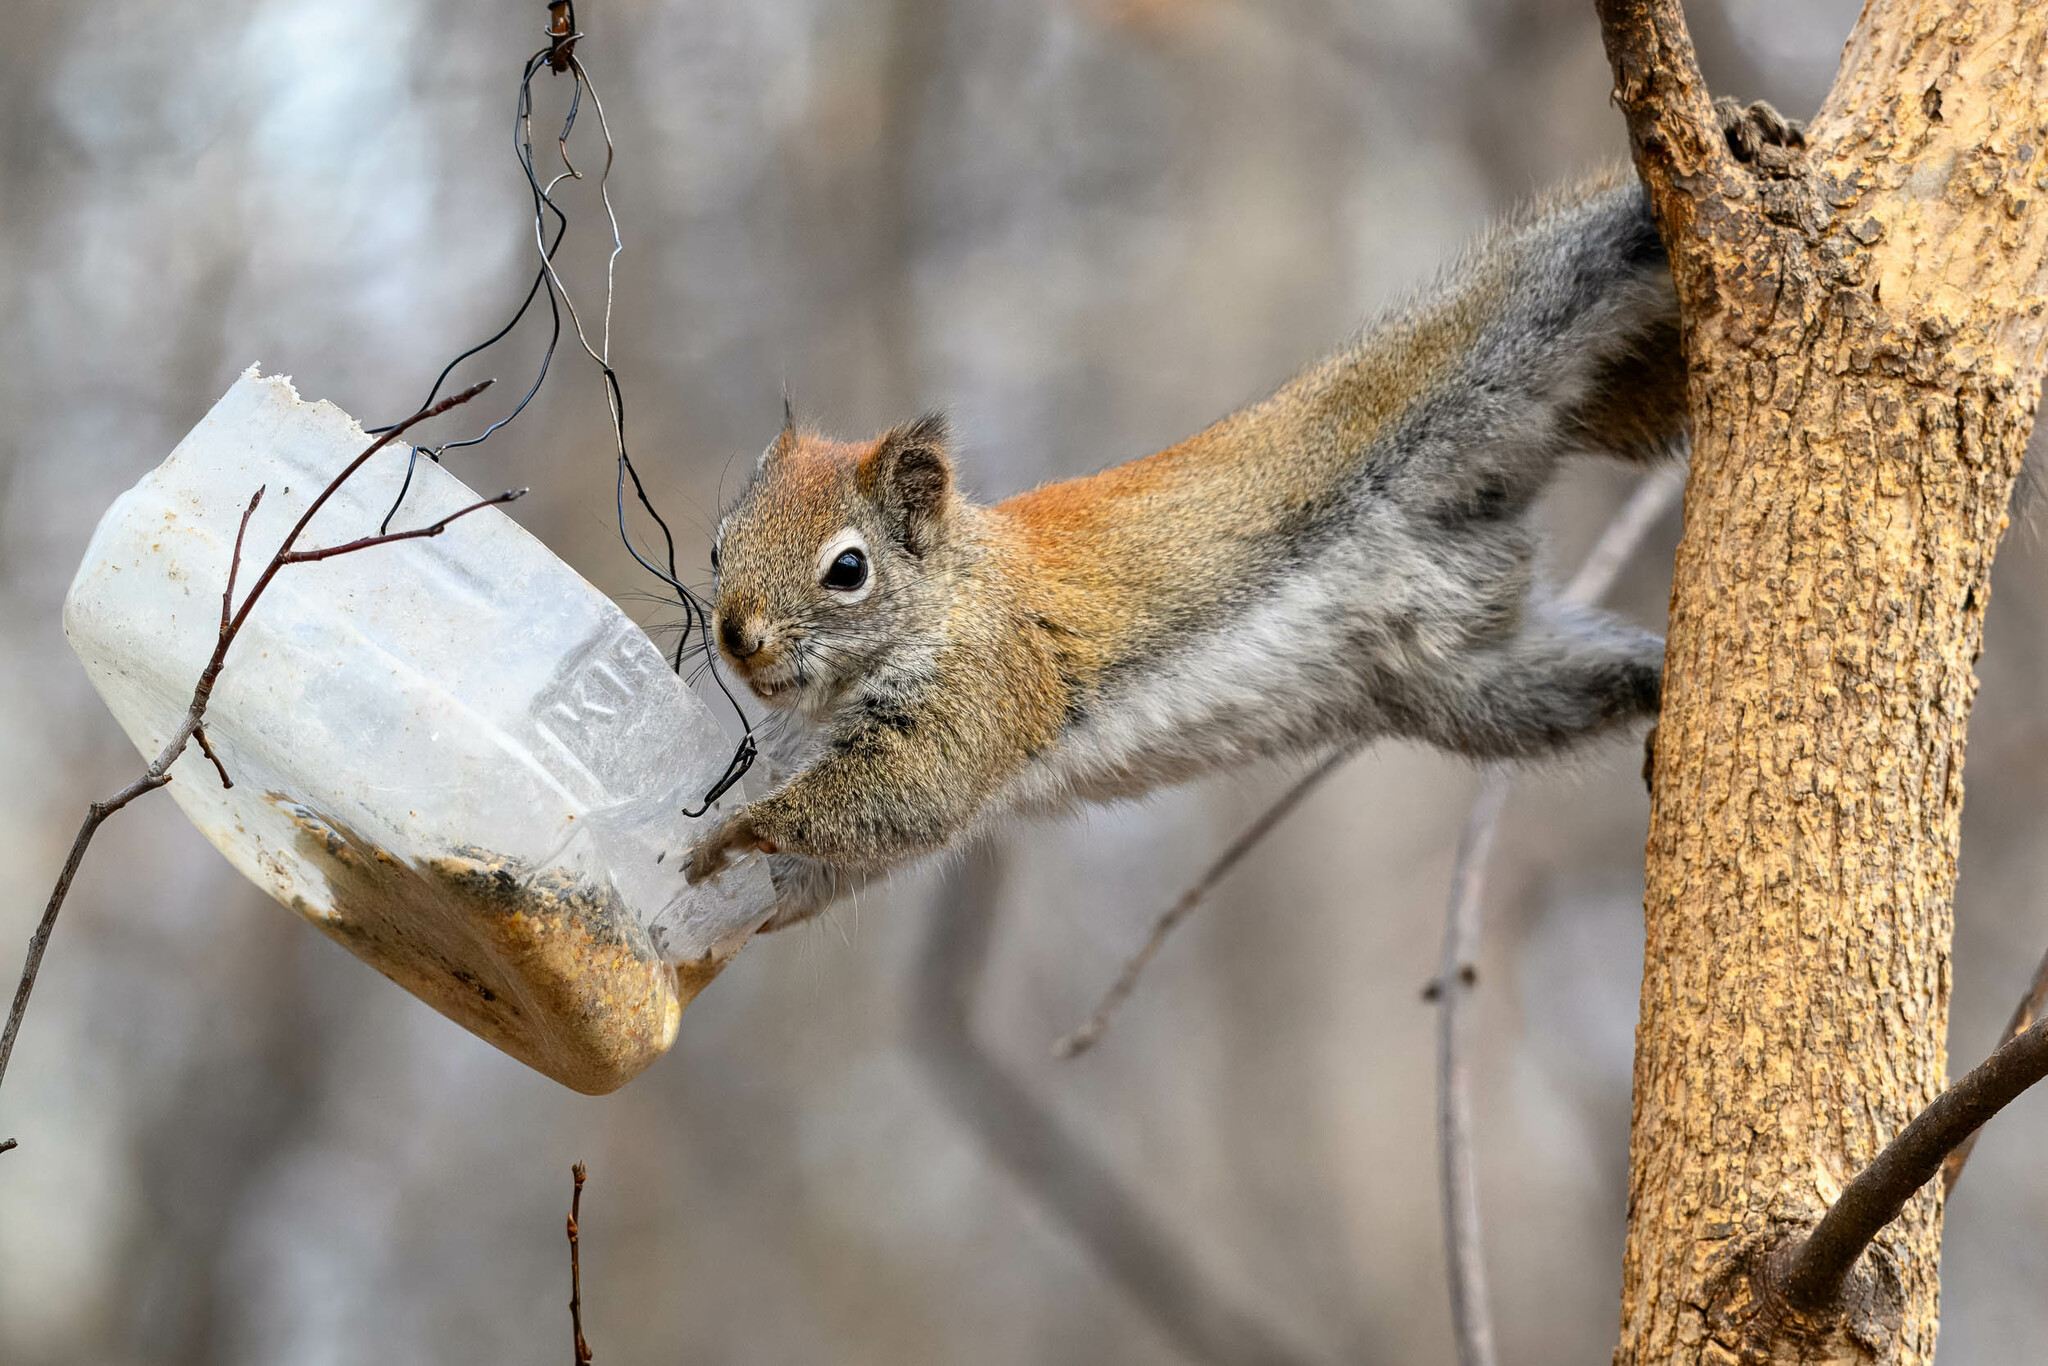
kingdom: Animalia
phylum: Chordata
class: Mammalia
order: Rodentia
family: Sciuridae
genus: Tamiasciurus
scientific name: Tamiasciurus hudsonicus
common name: Red squirrel
